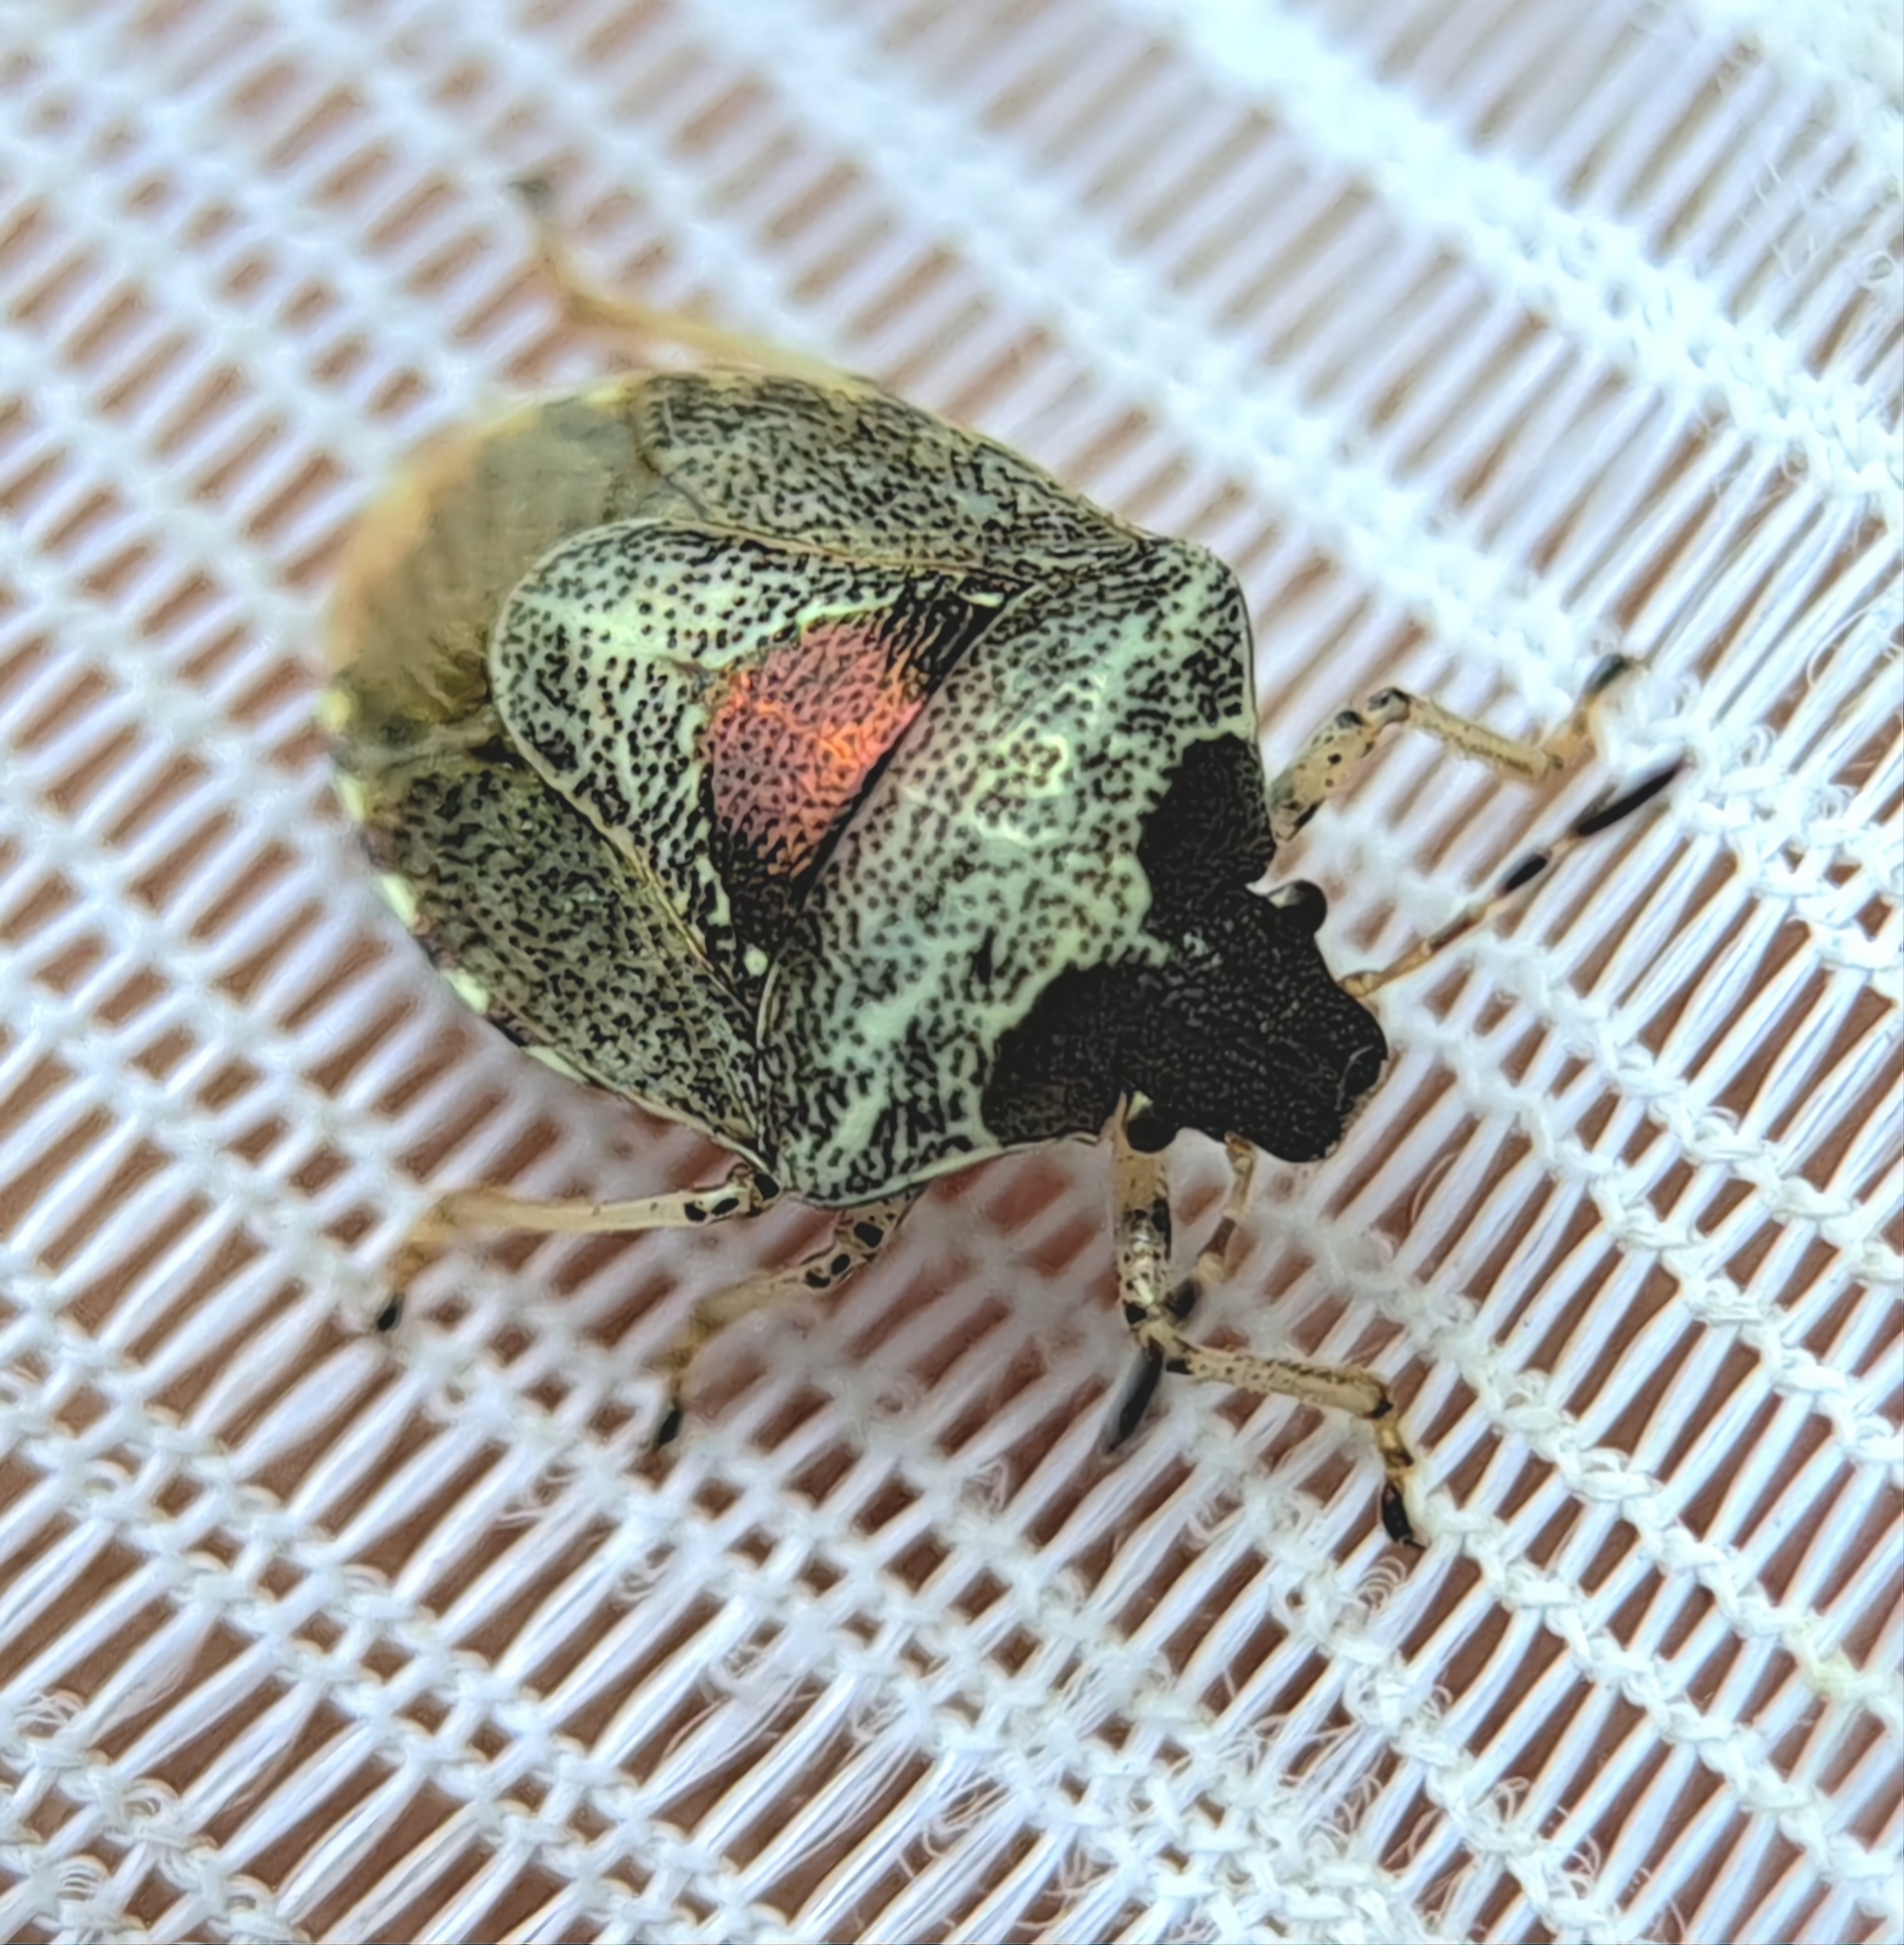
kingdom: Animalia
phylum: Arthropoda
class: Insecta
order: Hemiptera
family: Pentatomidae
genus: Eysarcoris
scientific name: Eysarcoris venustissimus
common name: Woundwort shieldbug
